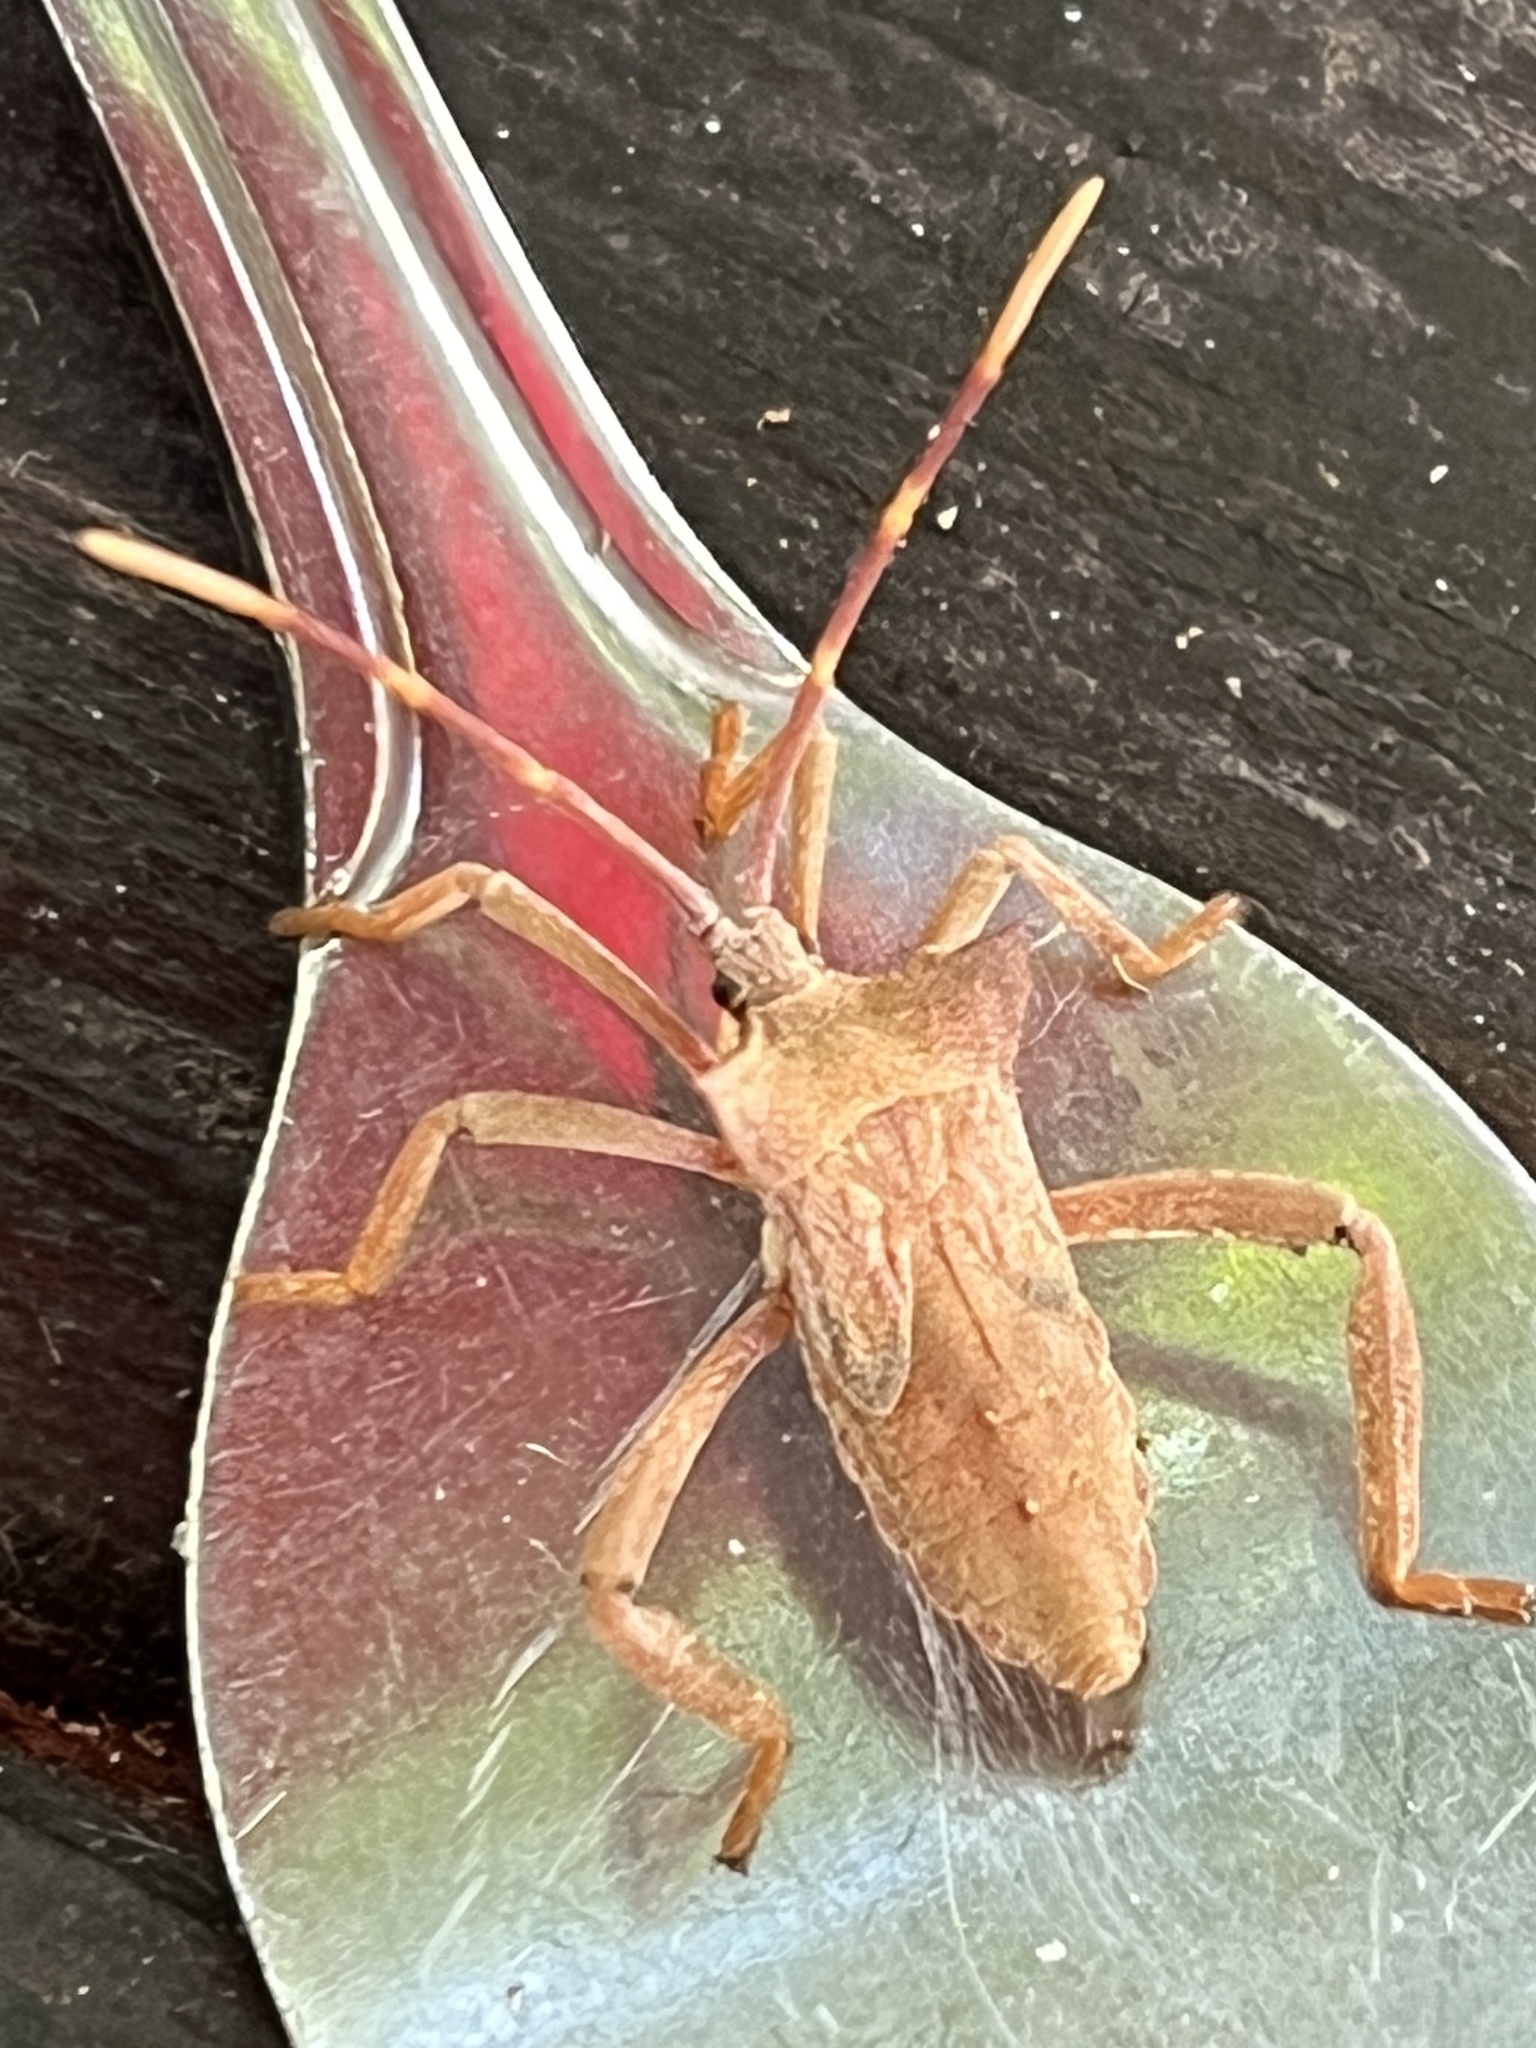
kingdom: Animalia
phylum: Arthropoda
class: Insecta
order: Hemiptera
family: Coreidae
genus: Elasmopoda
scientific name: Elasmopoda valga
